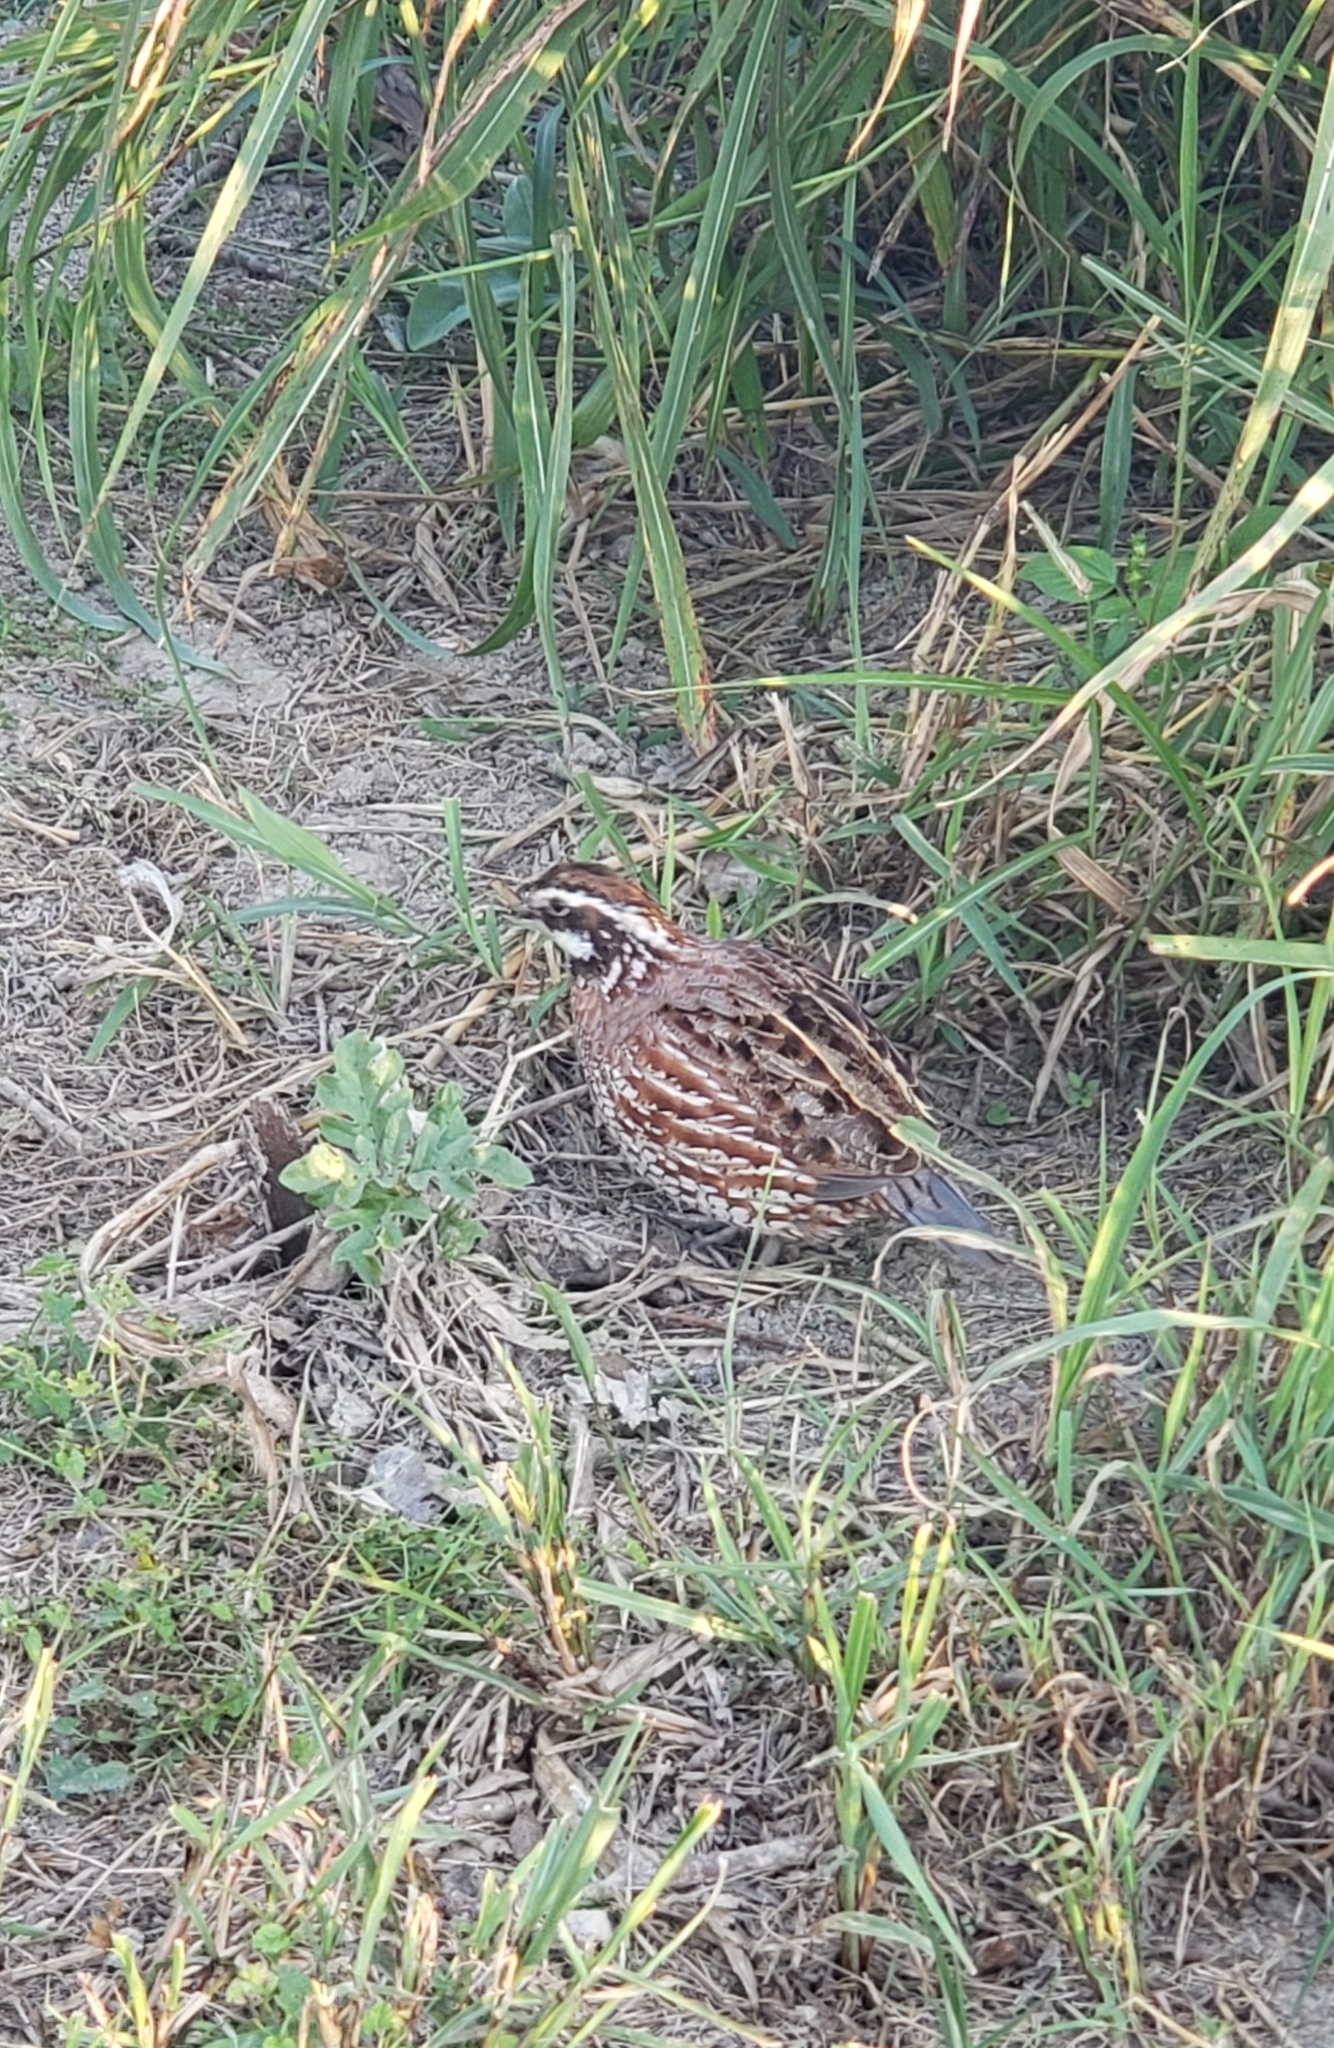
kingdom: Animalia
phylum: Chordata
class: Aves
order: Galliformes
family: Odontophoridae
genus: Colinus
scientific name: Colinus virginianus
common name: Northern bobwhite
